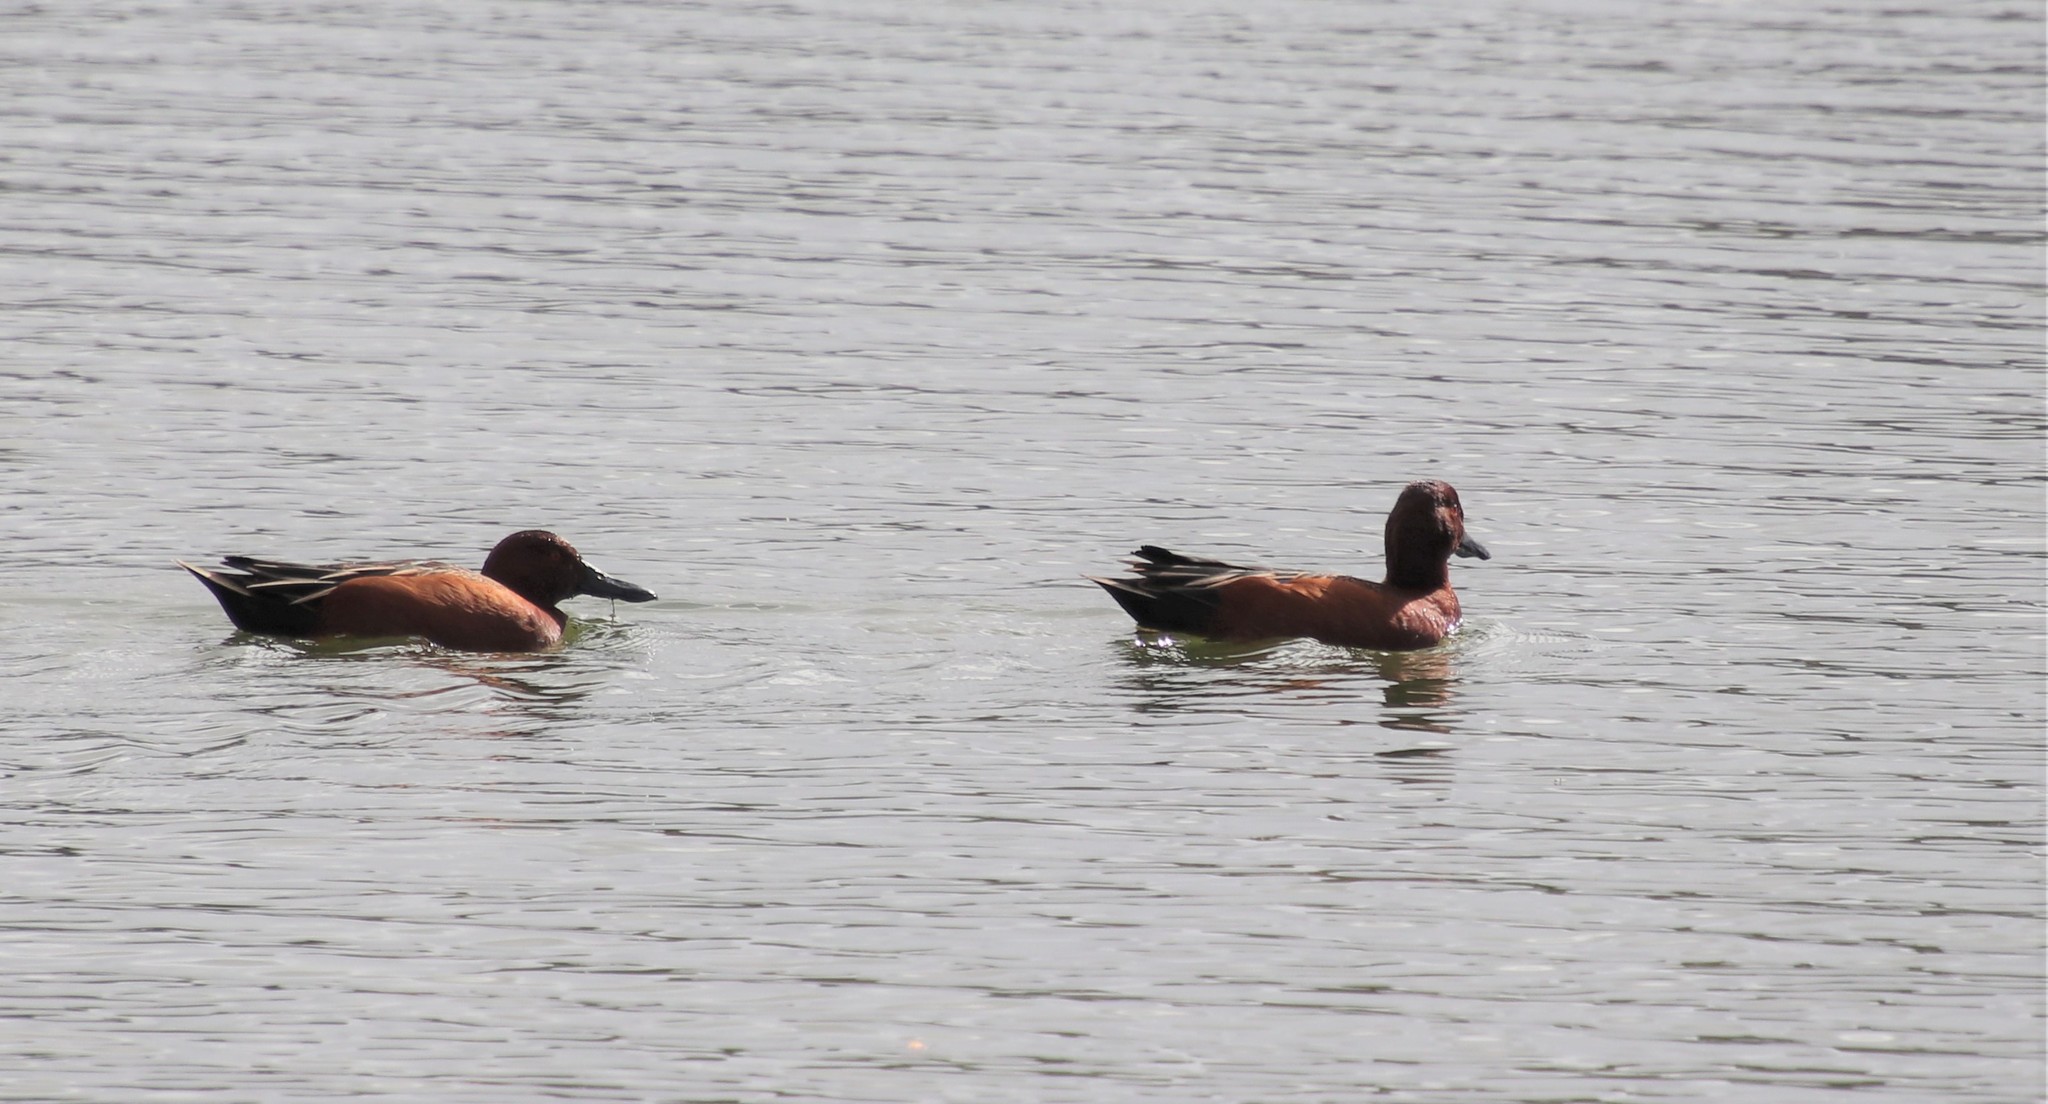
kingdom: Animalia
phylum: Chordata
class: Aves
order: Anseriformes
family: Anatidae
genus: Spatula
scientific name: Spatula cyanoptera
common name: Cinnamon teal
